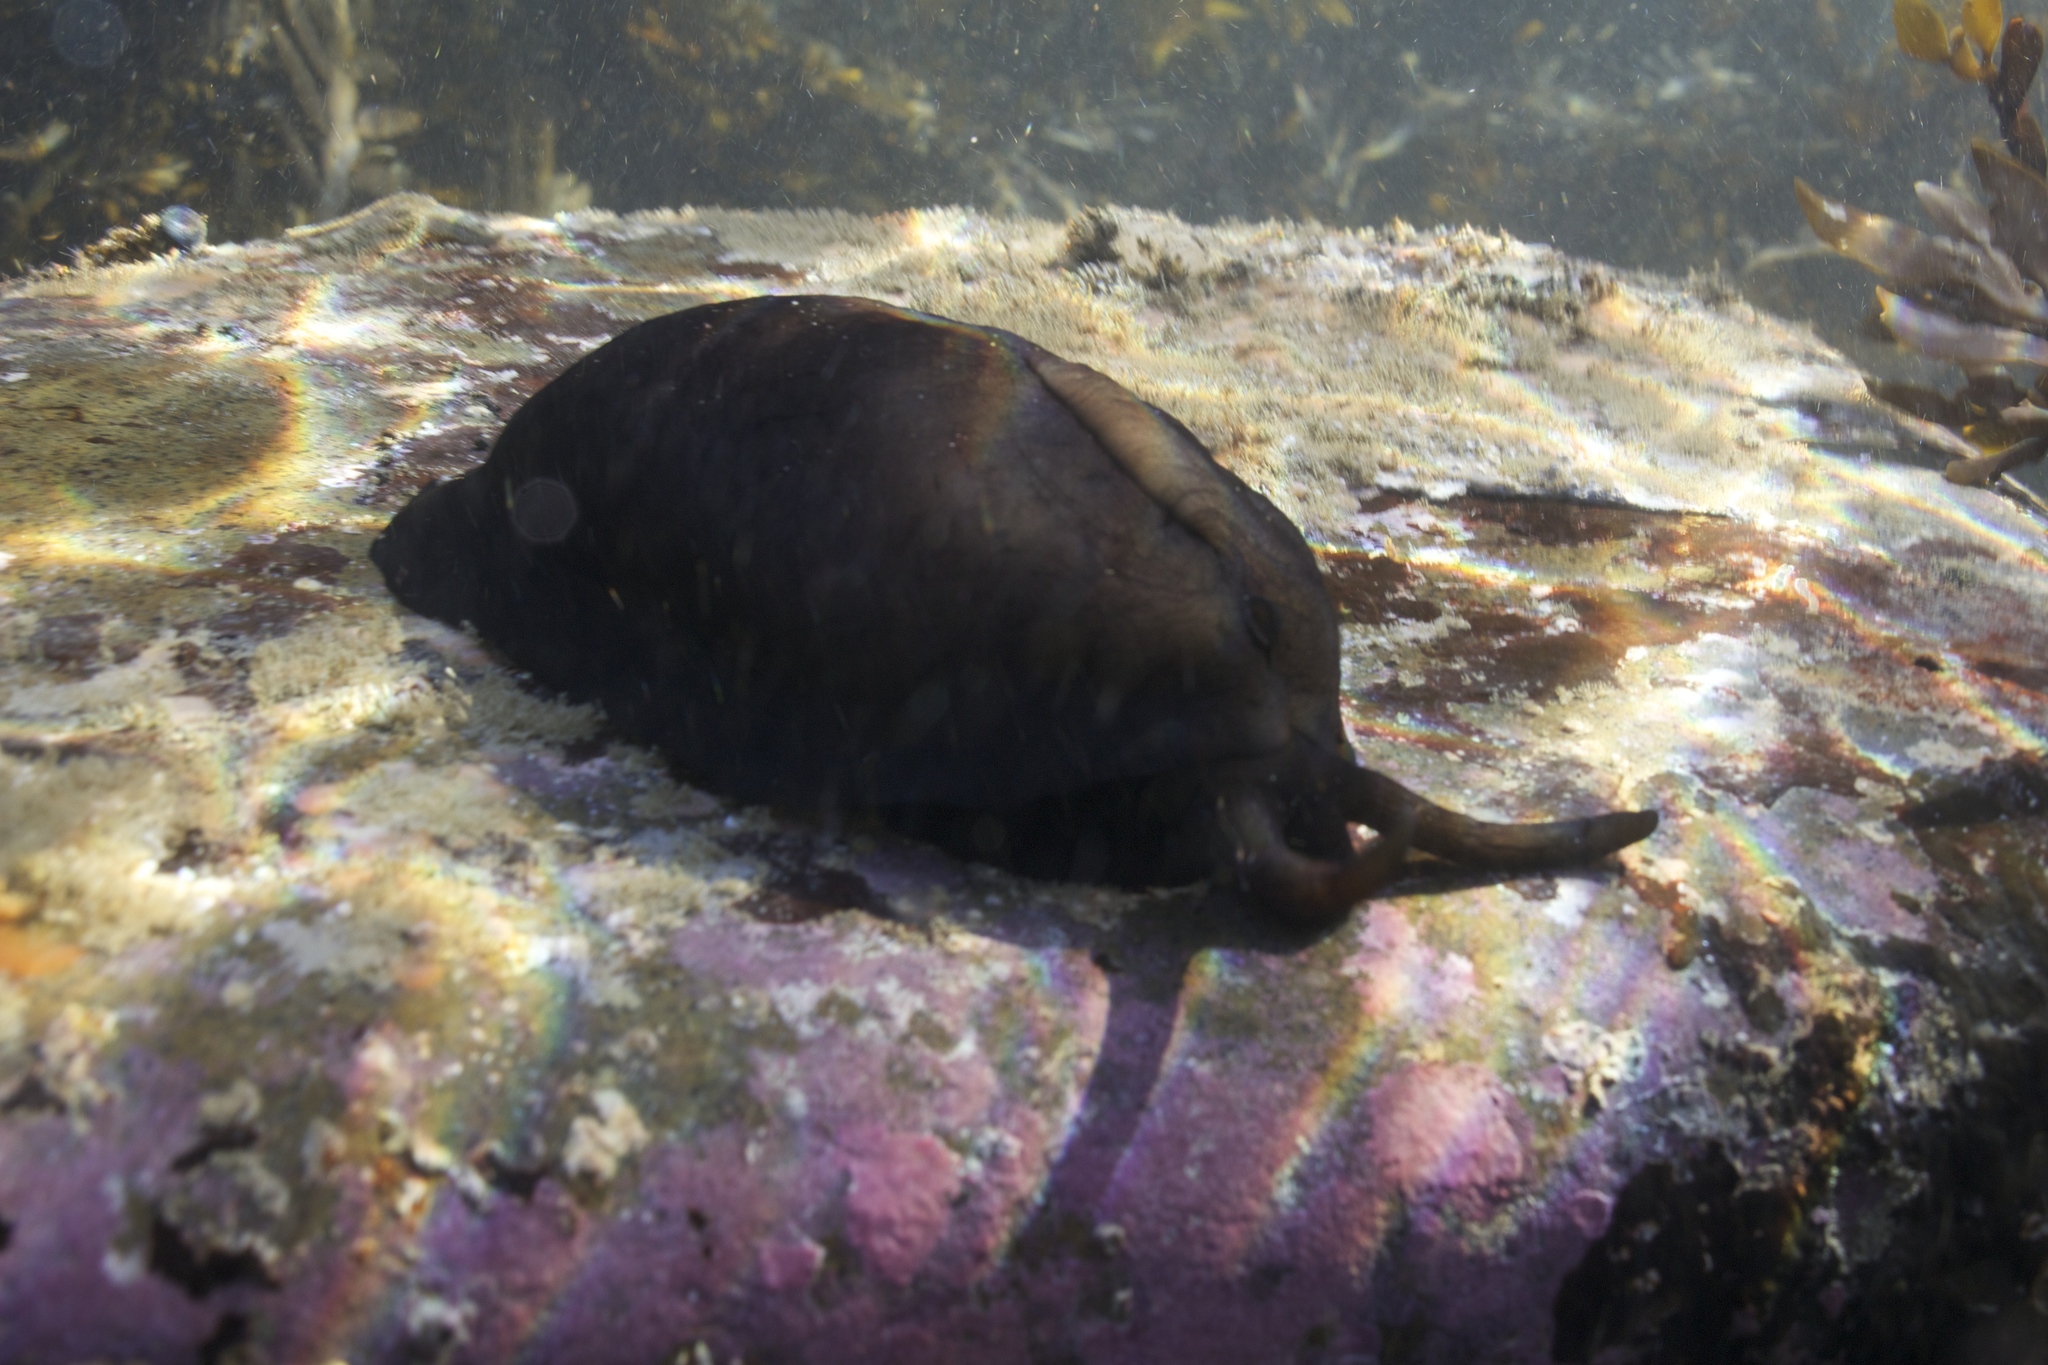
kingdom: Animalia
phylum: Mollusca
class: Gastropoda
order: Lepetellida
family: Fissurellidae
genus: Scutus
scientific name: Scutus breviculus
